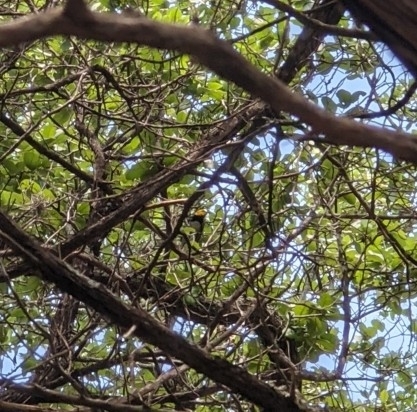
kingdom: Animalia
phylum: Chordata
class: Aves
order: Passeriformes
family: Parulidae
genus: Setophaga
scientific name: Setophaga chrysoparia
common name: Golden-cheeked warbler
